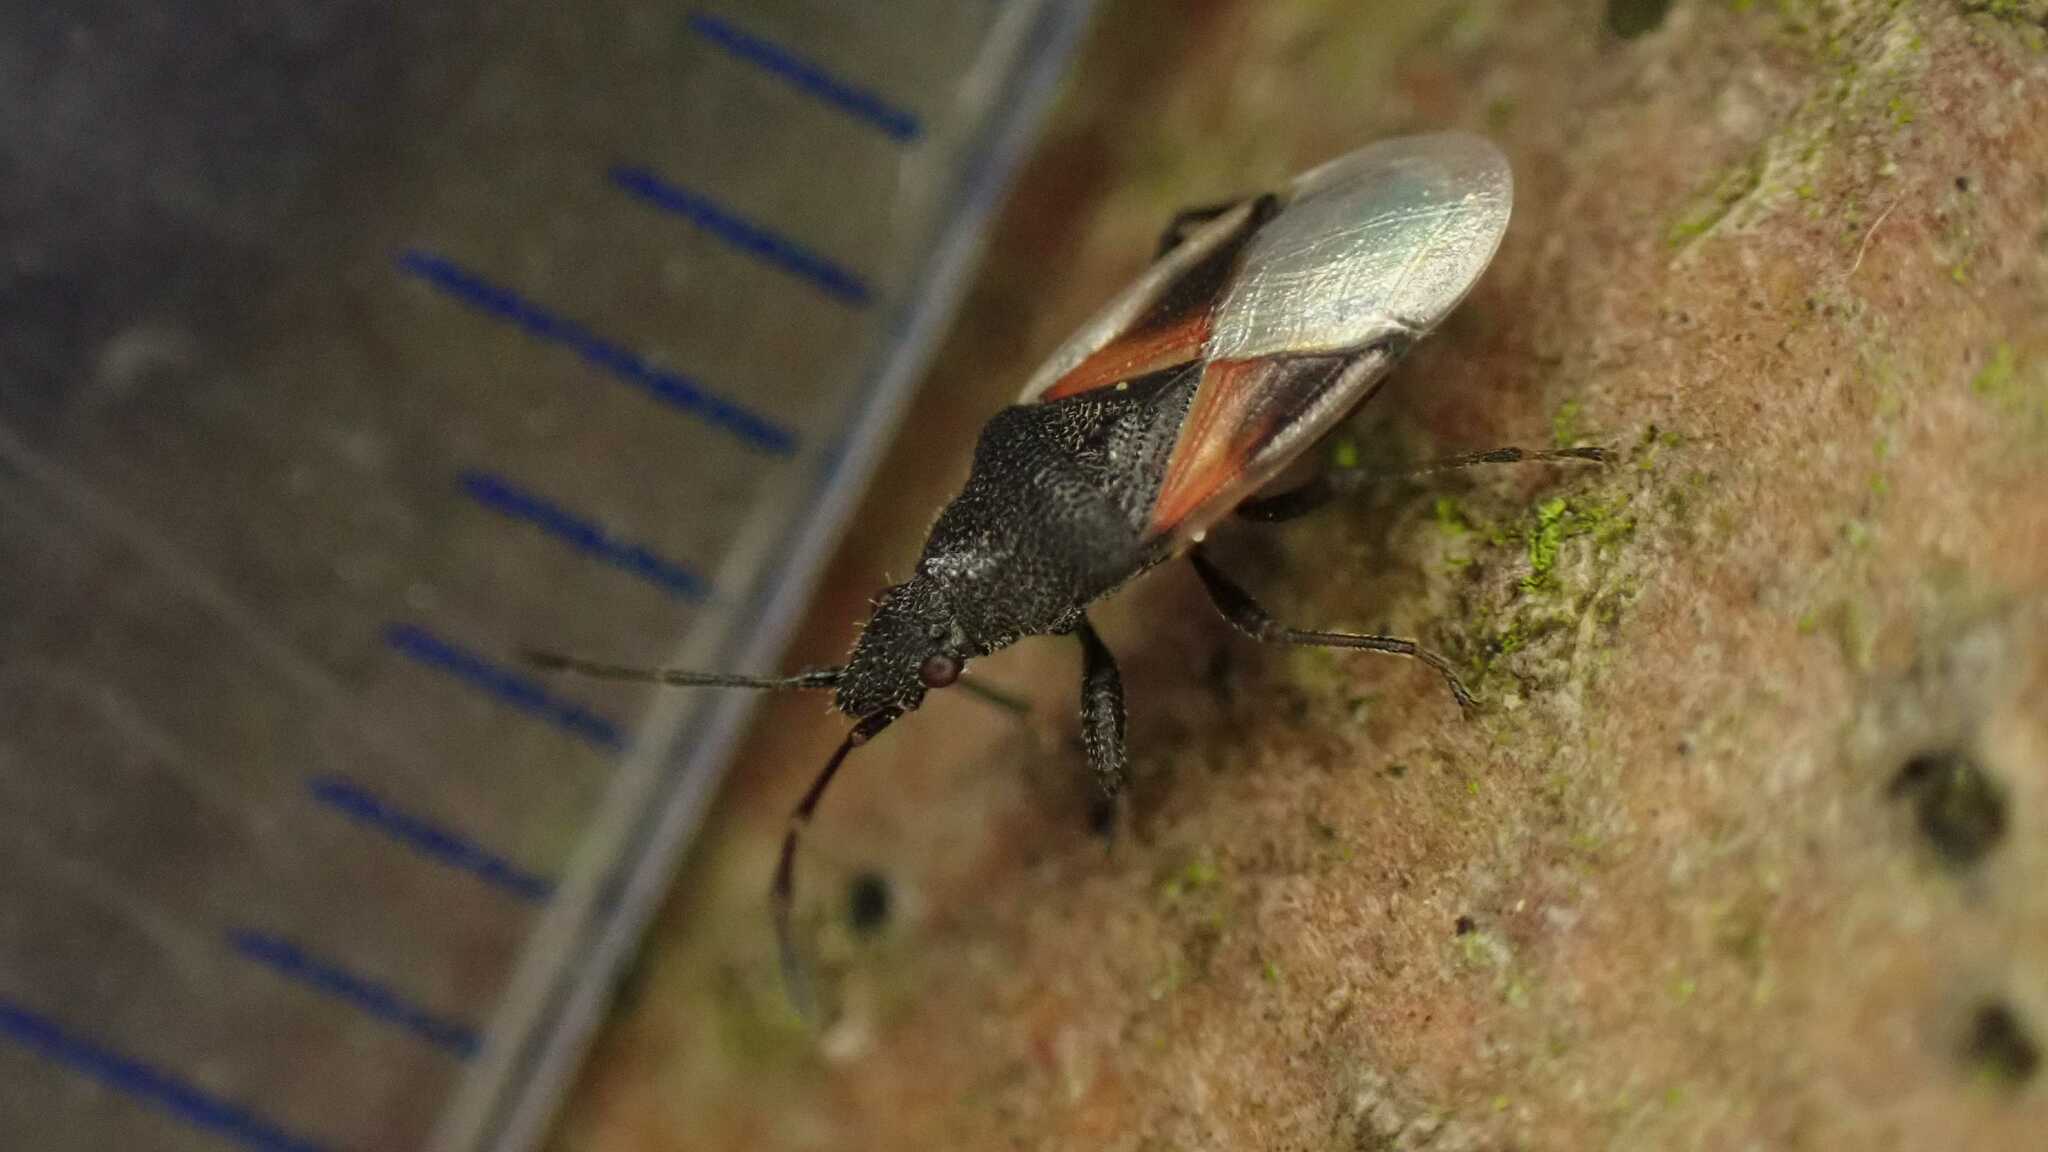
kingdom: Animalia
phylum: Arthropoda
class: Insecta
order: Hemiptera
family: Oxycarenidae
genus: Oxycarenus
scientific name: Oxycarenus lavaterae
